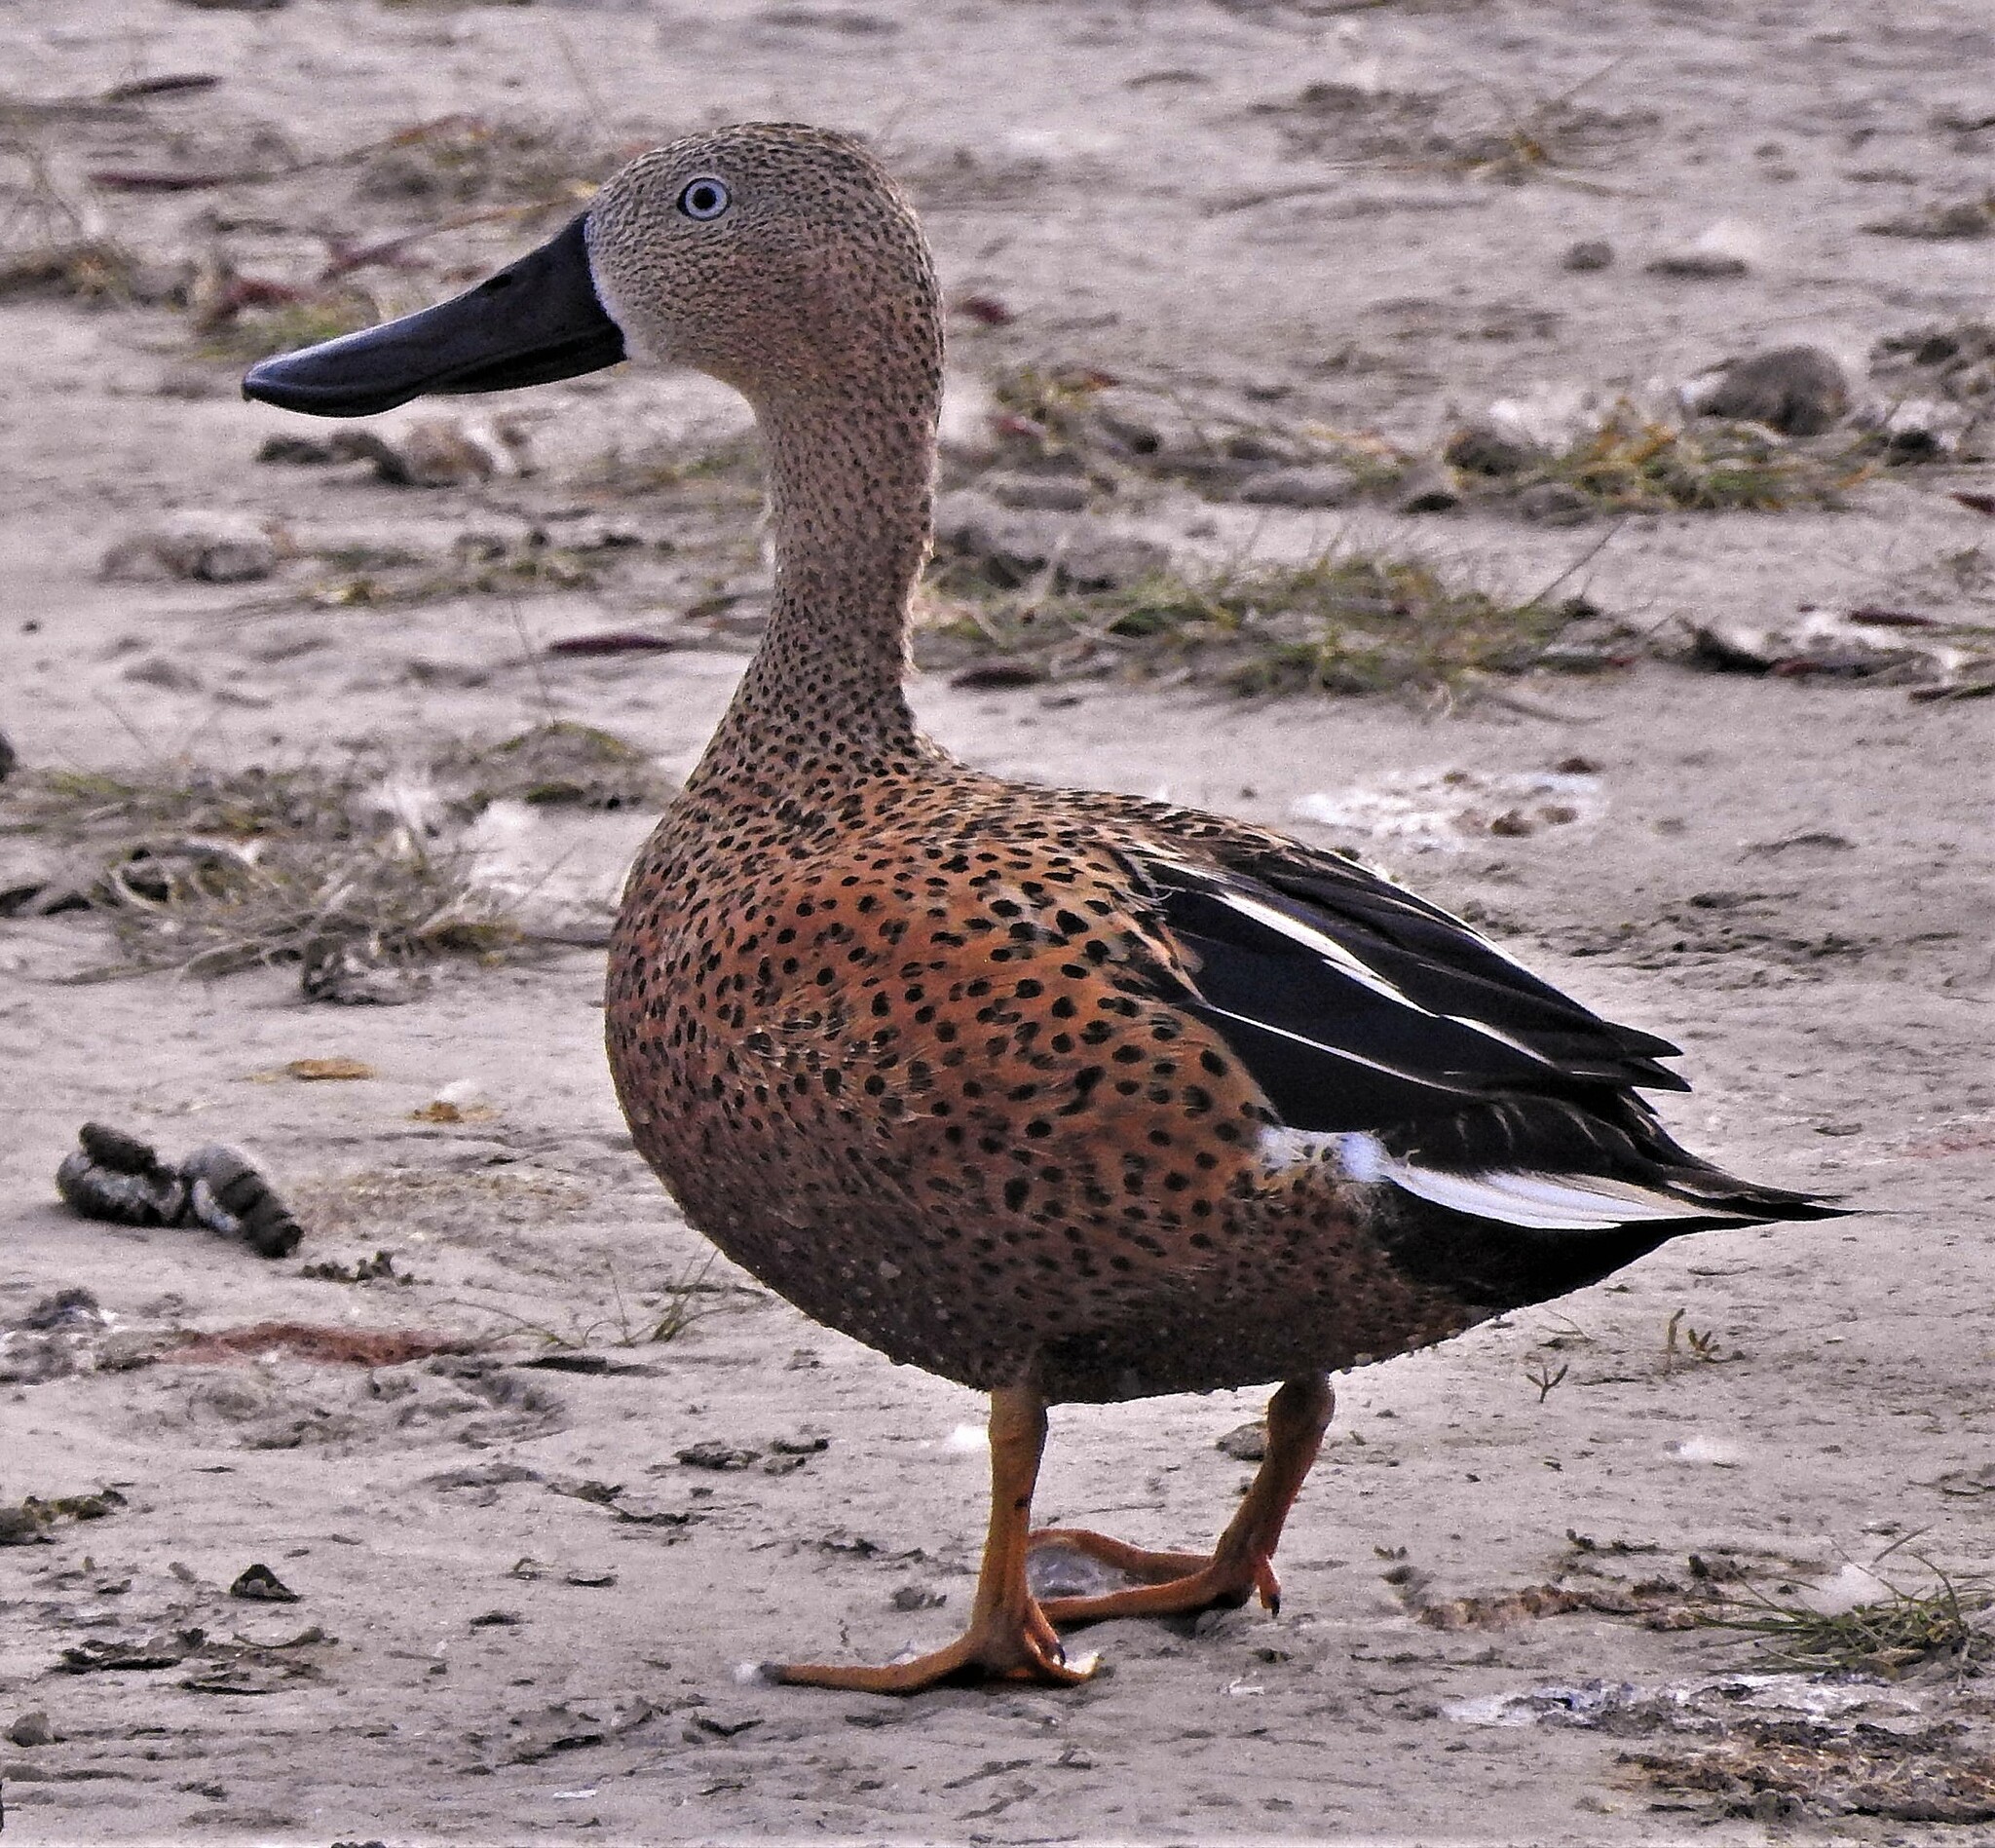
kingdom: Animalia
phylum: Chordata
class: Aves
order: Anseriformes
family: Anatidae
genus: Spatula
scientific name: Spatula platalea
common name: Red shoveler
